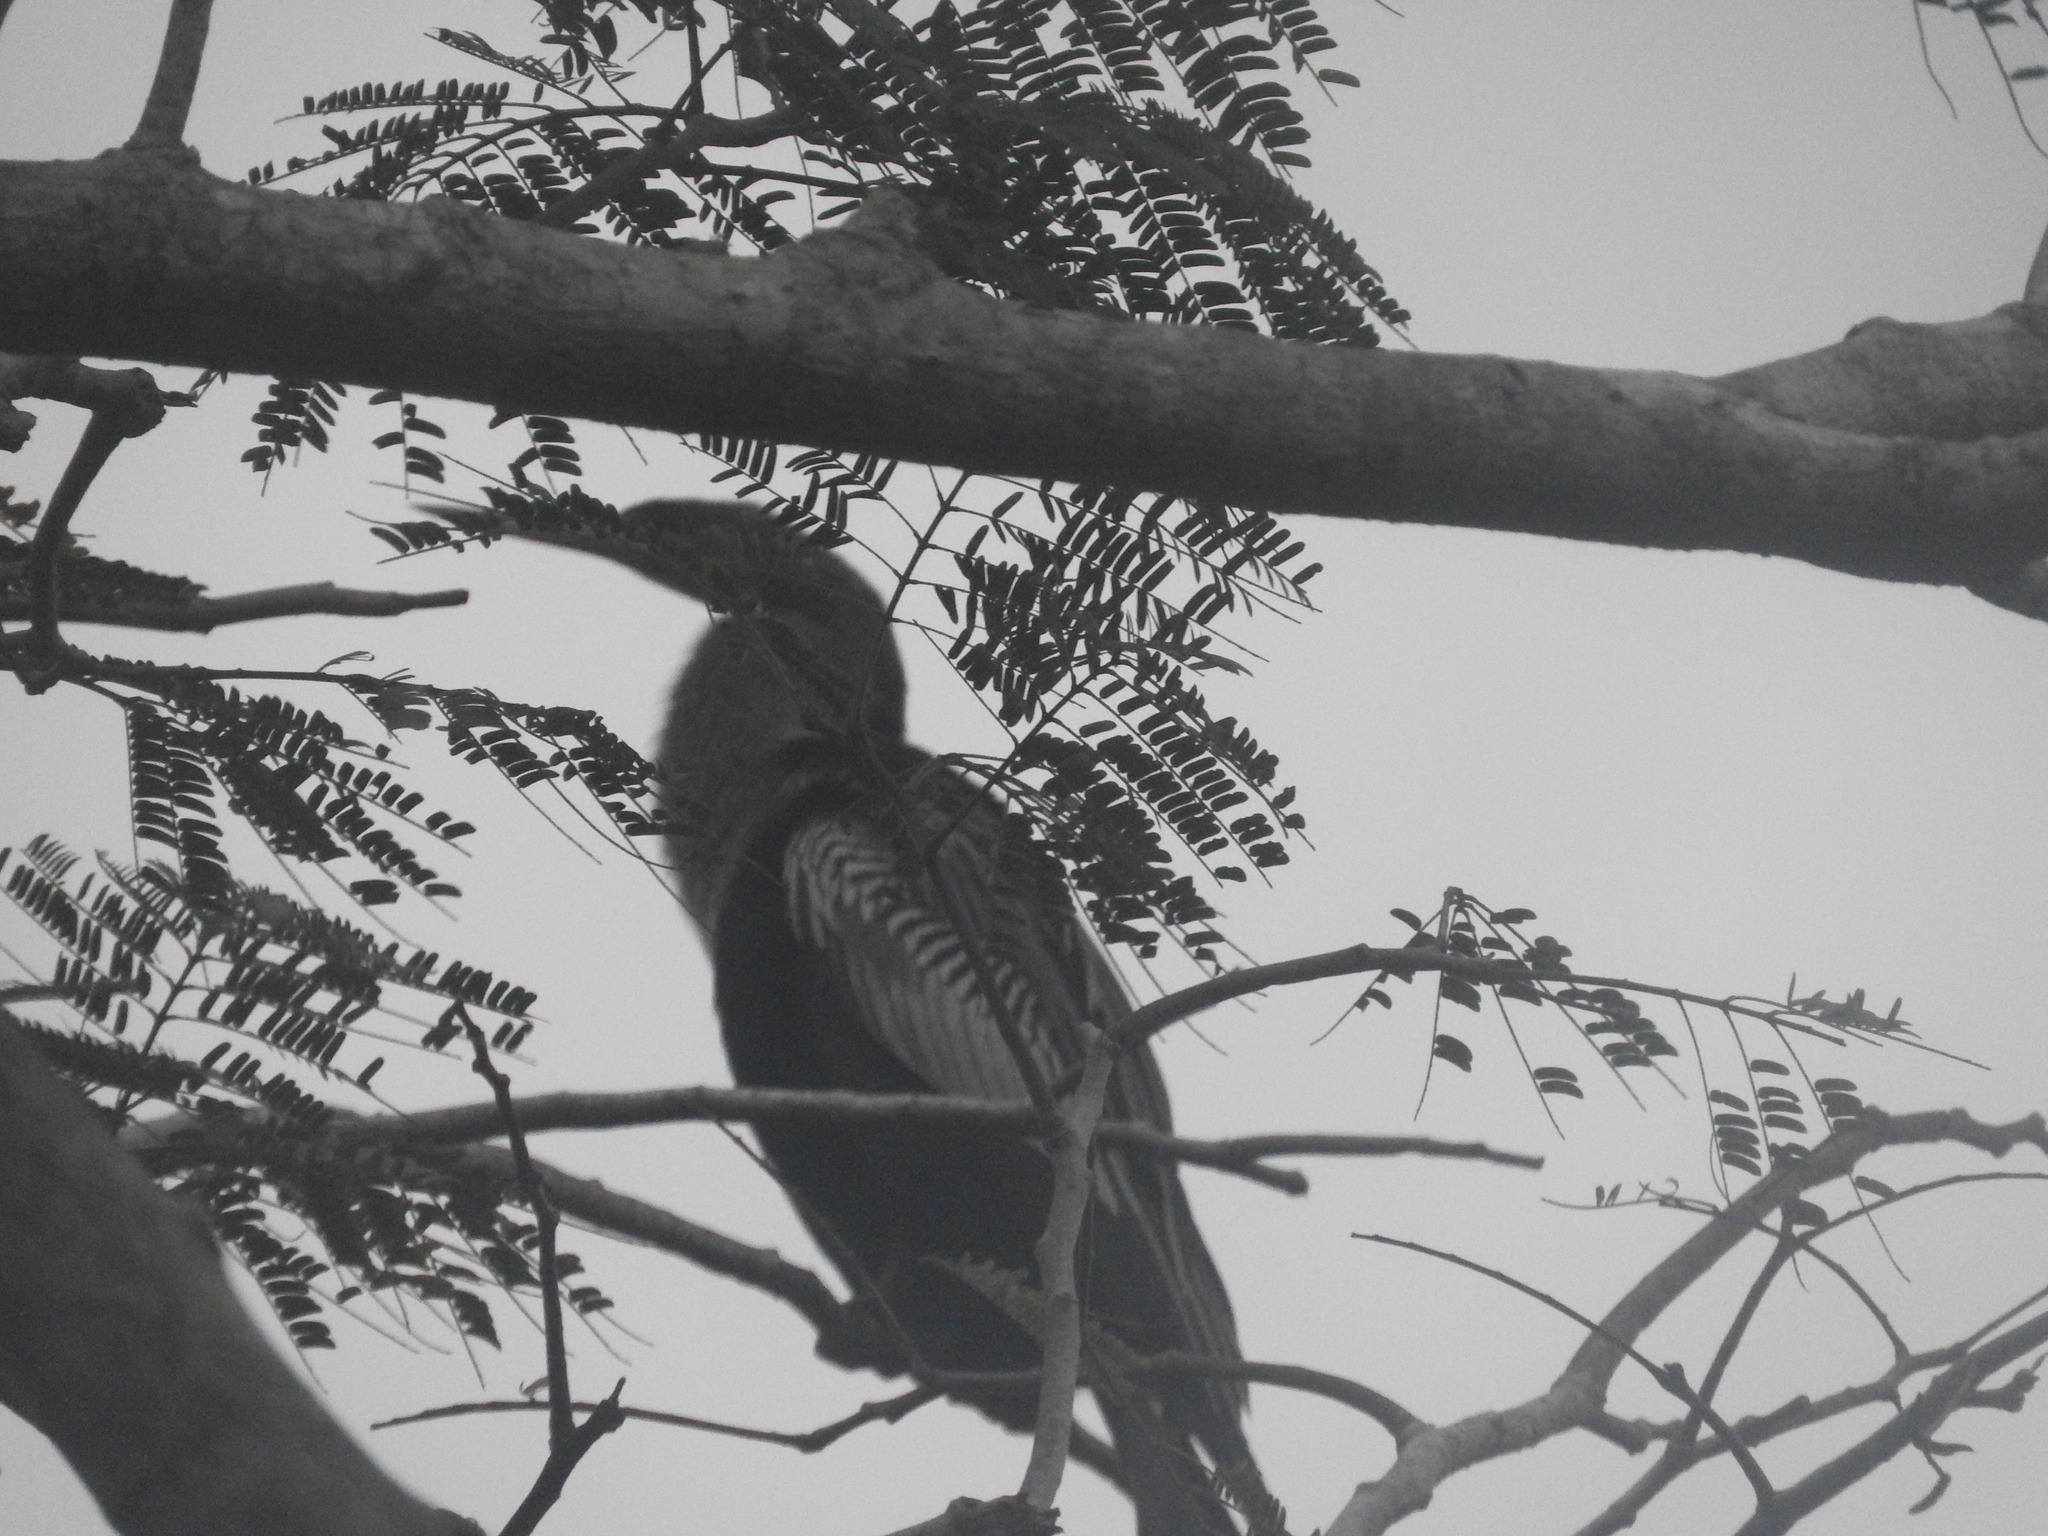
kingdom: Animalia
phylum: Chordata
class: Aves
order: Suliformes
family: Anhingidae
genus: Anhinga
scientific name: Anhinga anhinga
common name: Anhinga
